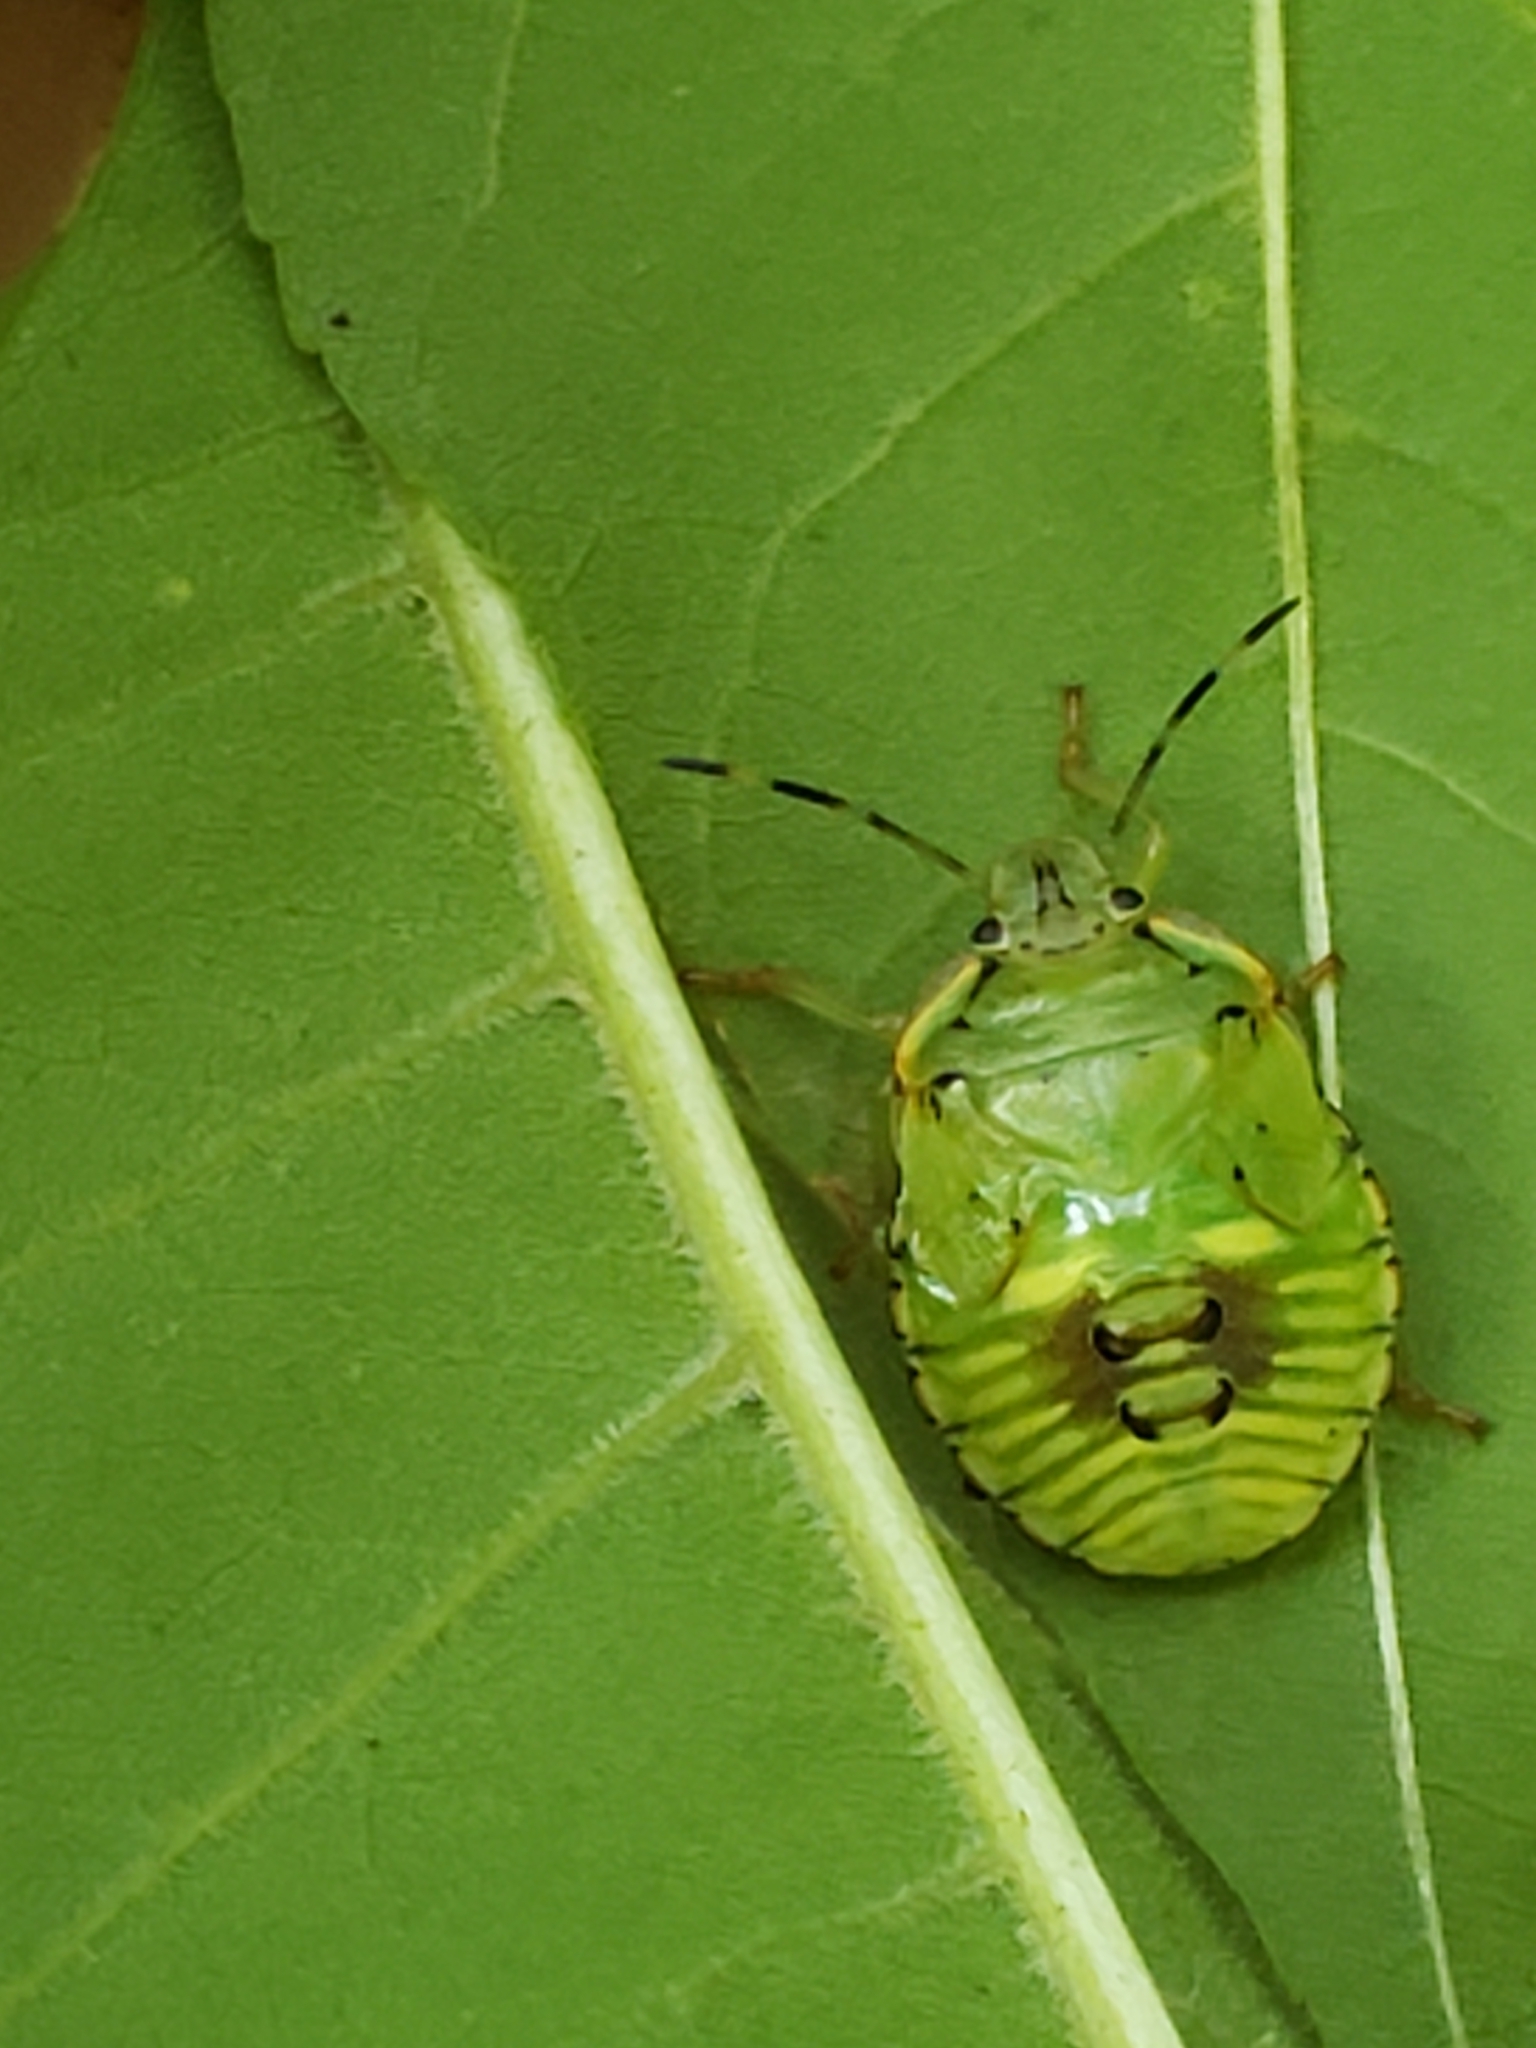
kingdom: Animalia
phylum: Arthropoda
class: Insecta
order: Hemiptera
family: Pentatomidae
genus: Chinavia
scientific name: Chinavia hilaris
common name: Green stink bug
